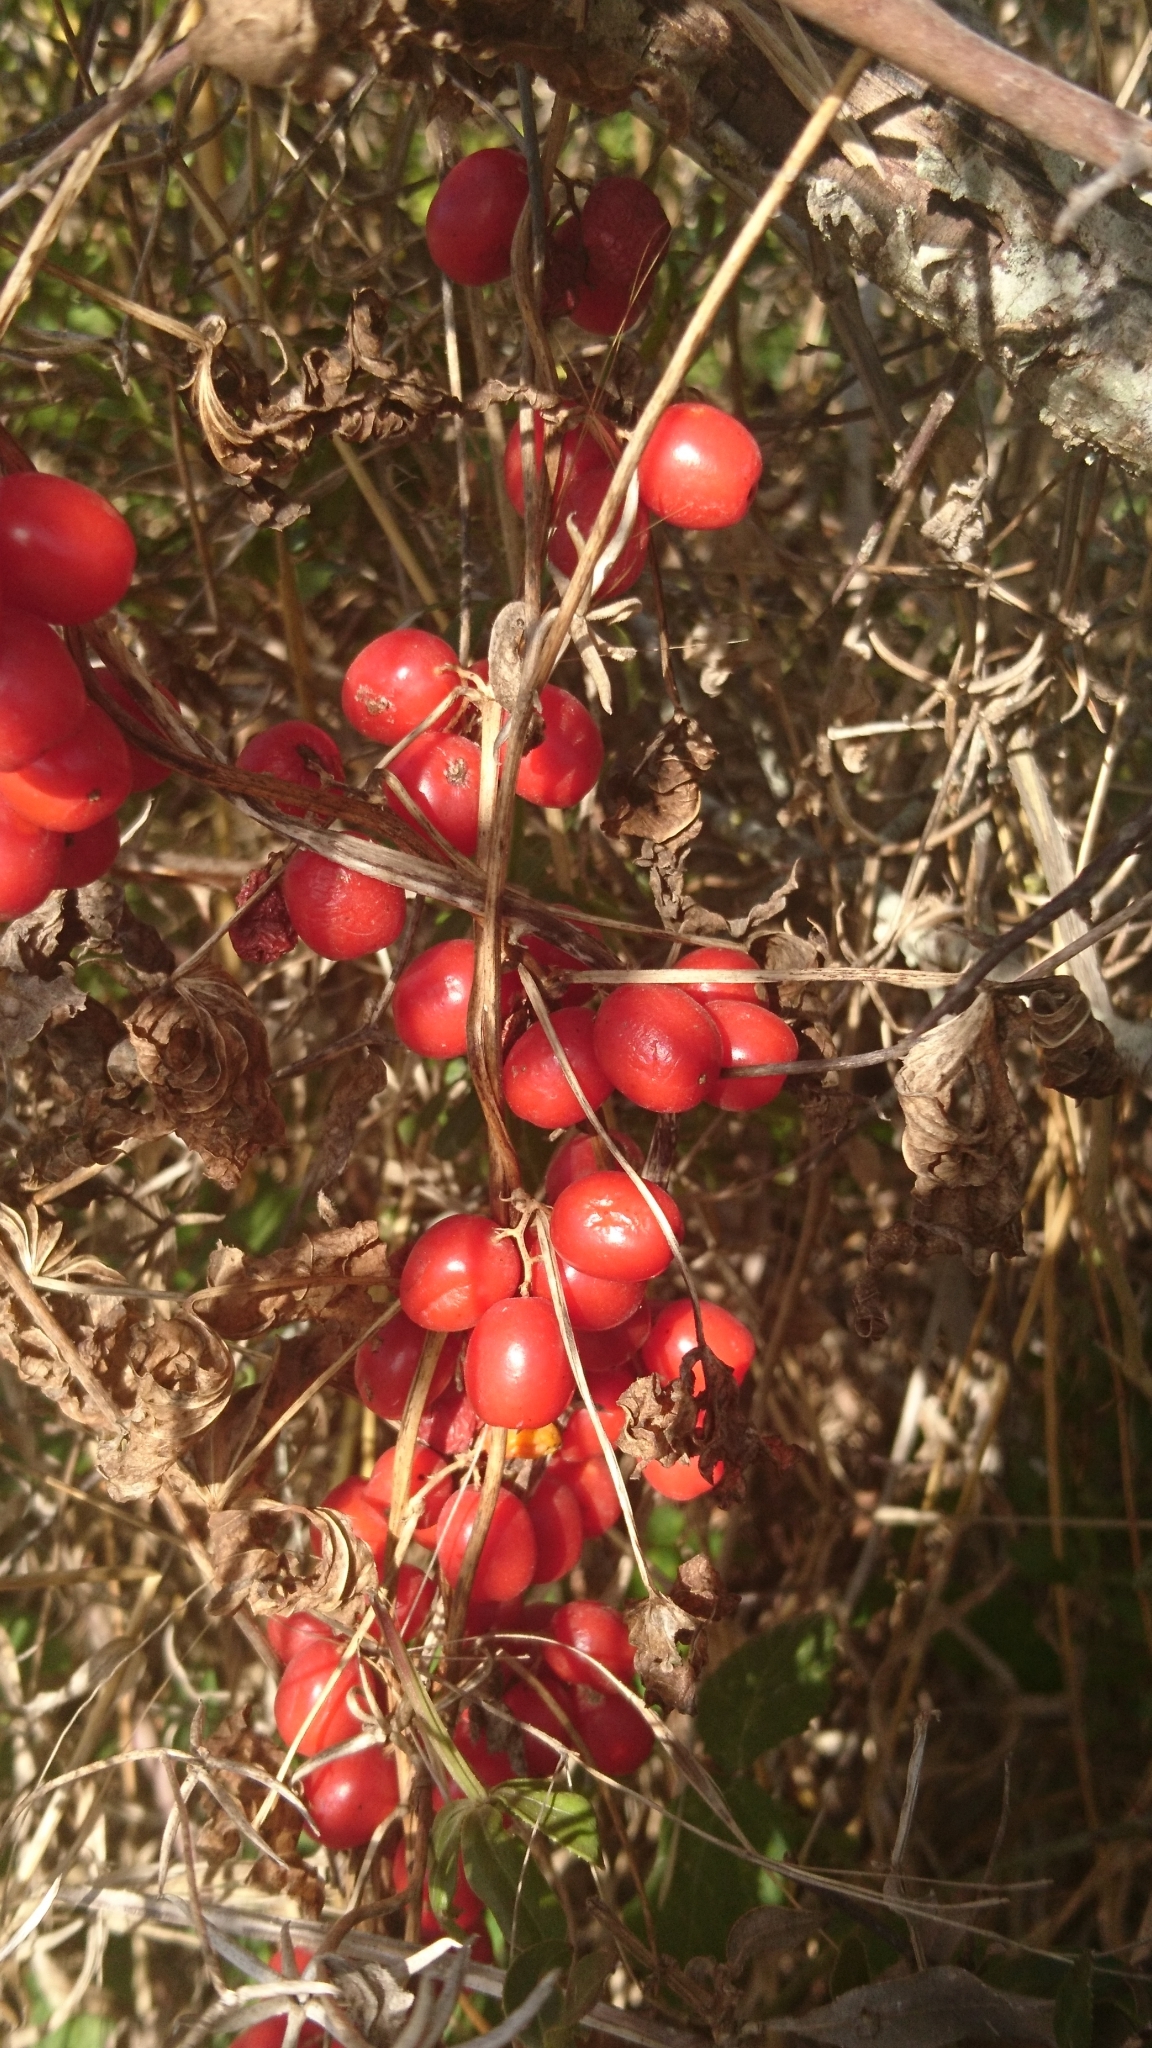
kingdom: Plantae
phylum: Tracheophyta
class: Liliopsida
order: Dioscoreales
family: Dioscoreaceae
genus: Dioscorea
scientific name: Dioscorea communis
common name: Black-bindweed
